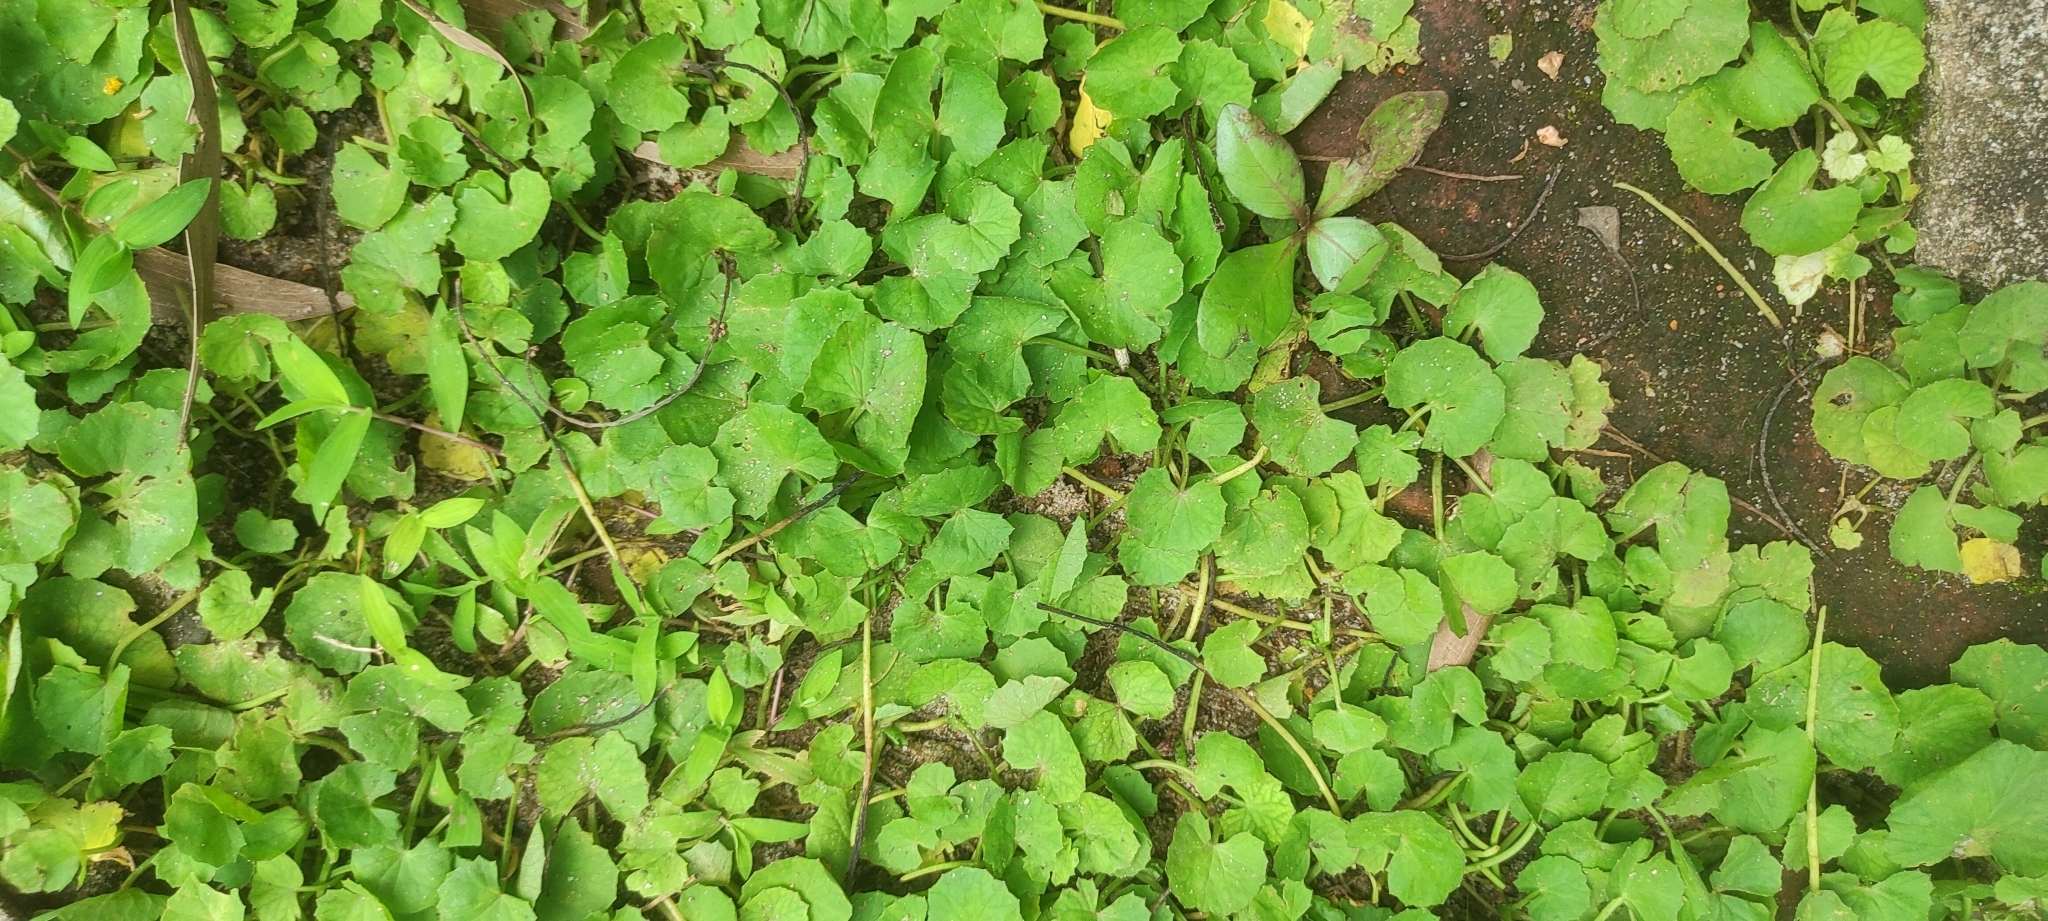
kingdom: Plantae
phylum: Tracheophyta
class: Magnoliopsida
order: Apiales
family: Apiaceae
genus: Centella
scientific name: Centella asiatica
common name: Spadeleaf
